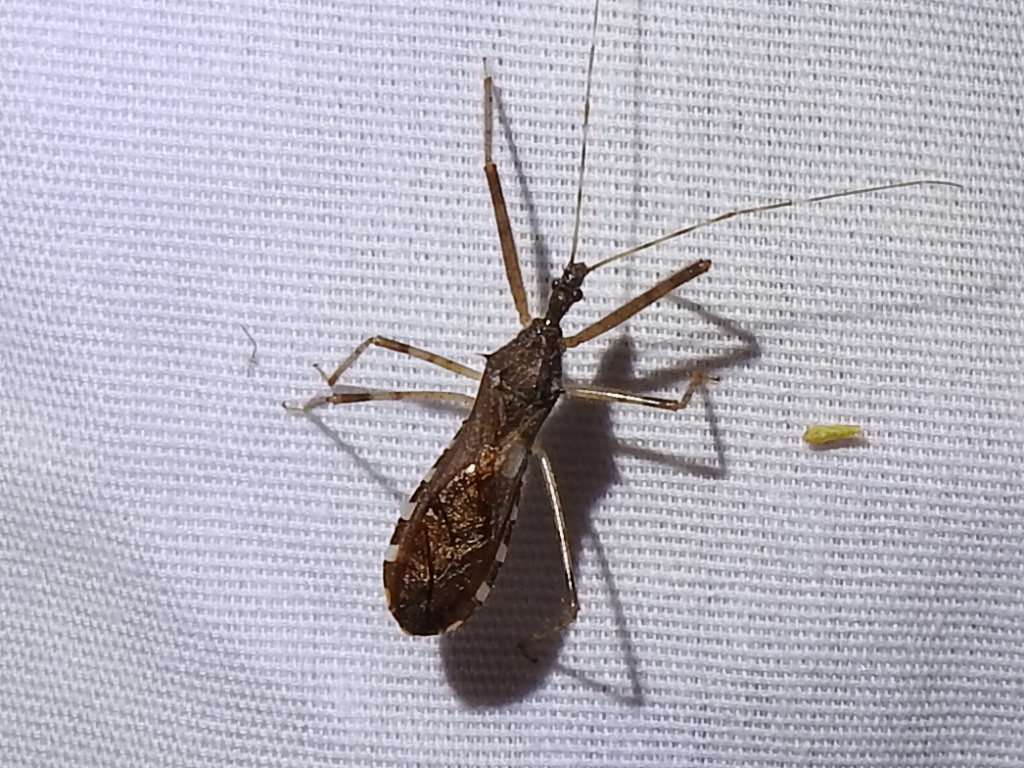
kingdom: Animalia
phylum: Arthropoda
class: Insecta
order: Hemiptera
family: Reduviidae
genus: Rocconota
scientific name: Rocconota annulicornis
